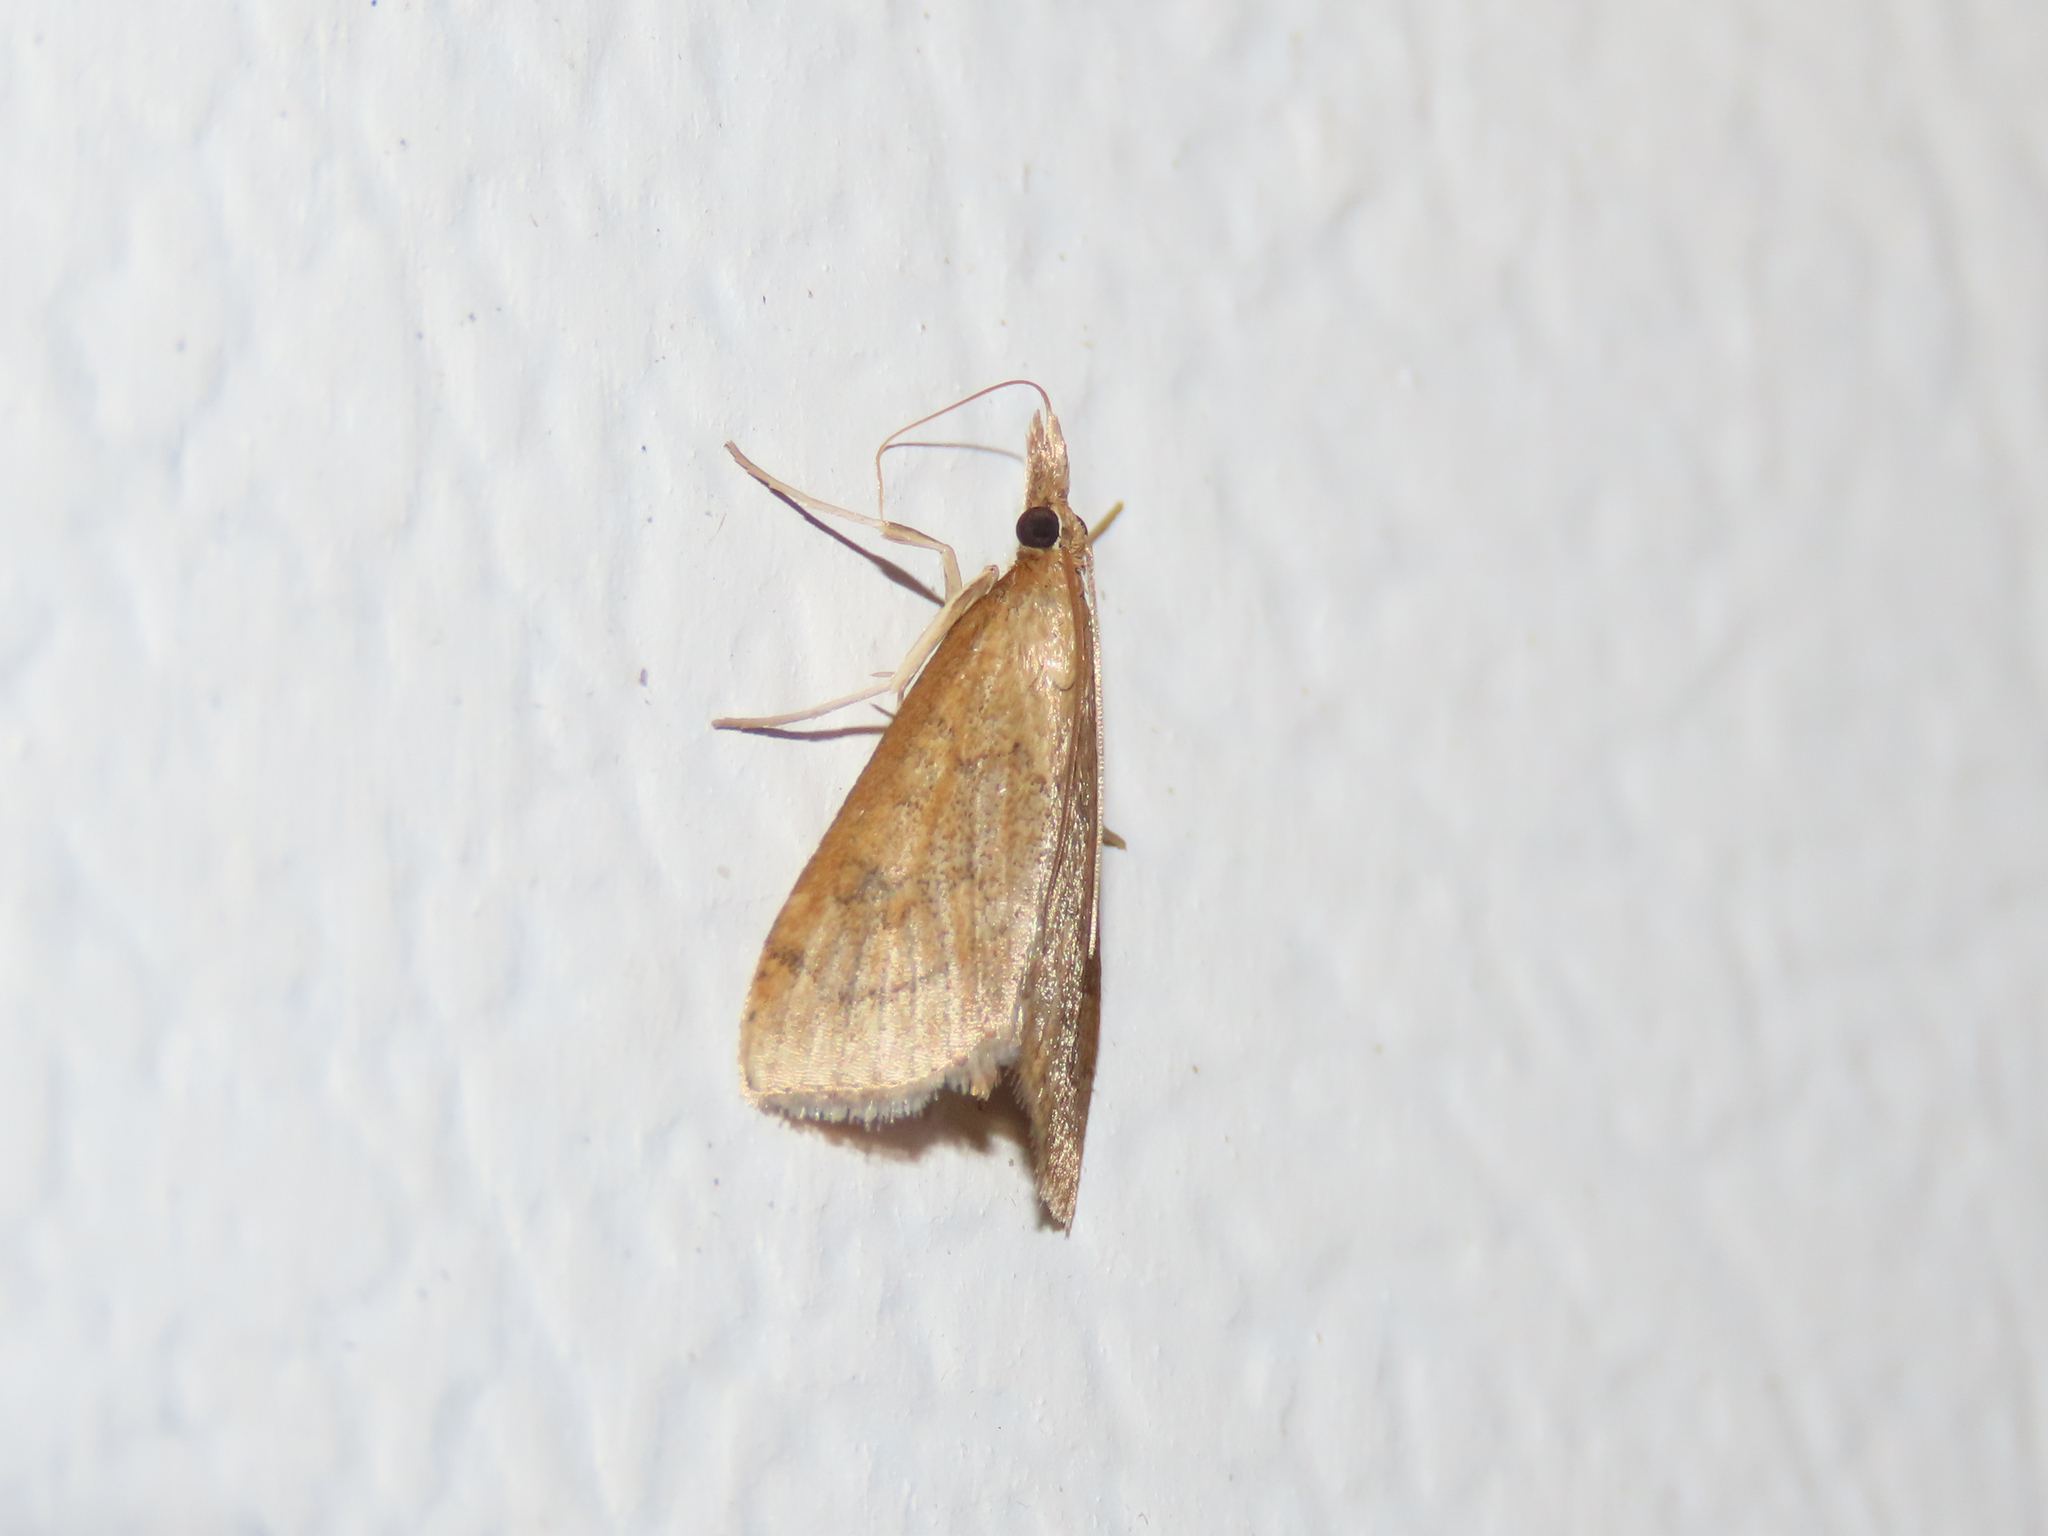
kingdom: Animalia
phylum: Arthropoda
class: Insecta
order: Lepidoptera
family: Crambidae
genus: Udea
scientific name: Udea rubigalis
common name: Celery leaftier moth
